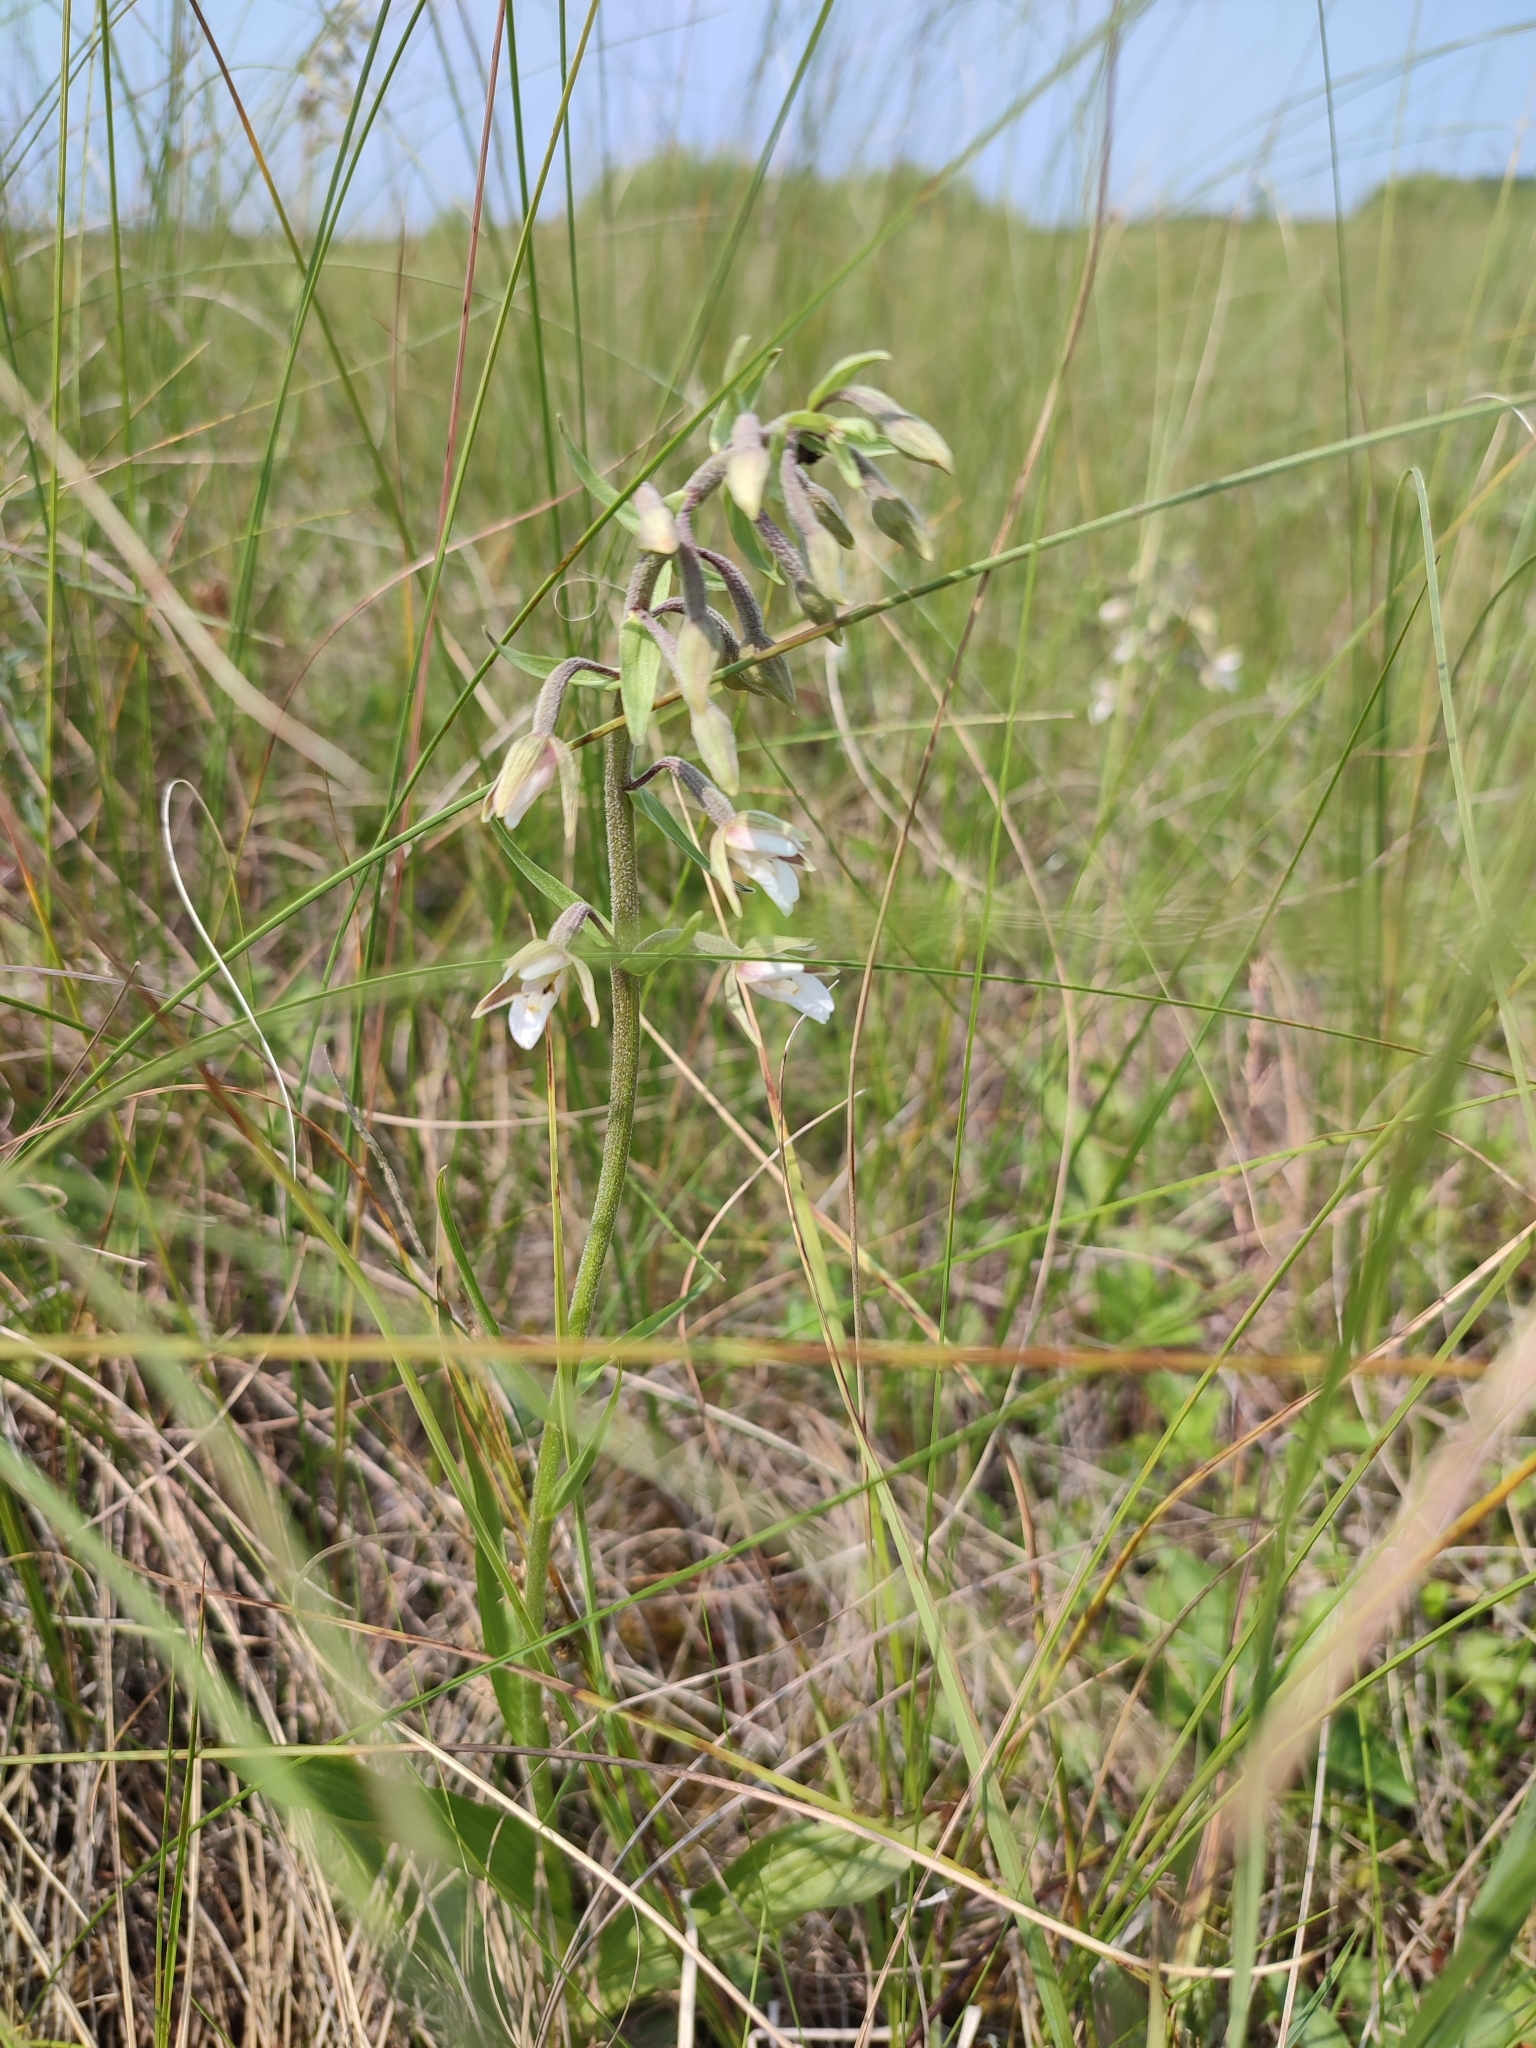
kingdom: Plantae
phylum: Tracheophyta
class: Liliopsida
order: Asparagales
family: Orchidaceae
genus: Epipactis
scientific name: Epipactis palustris
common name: Marsh helleborine
